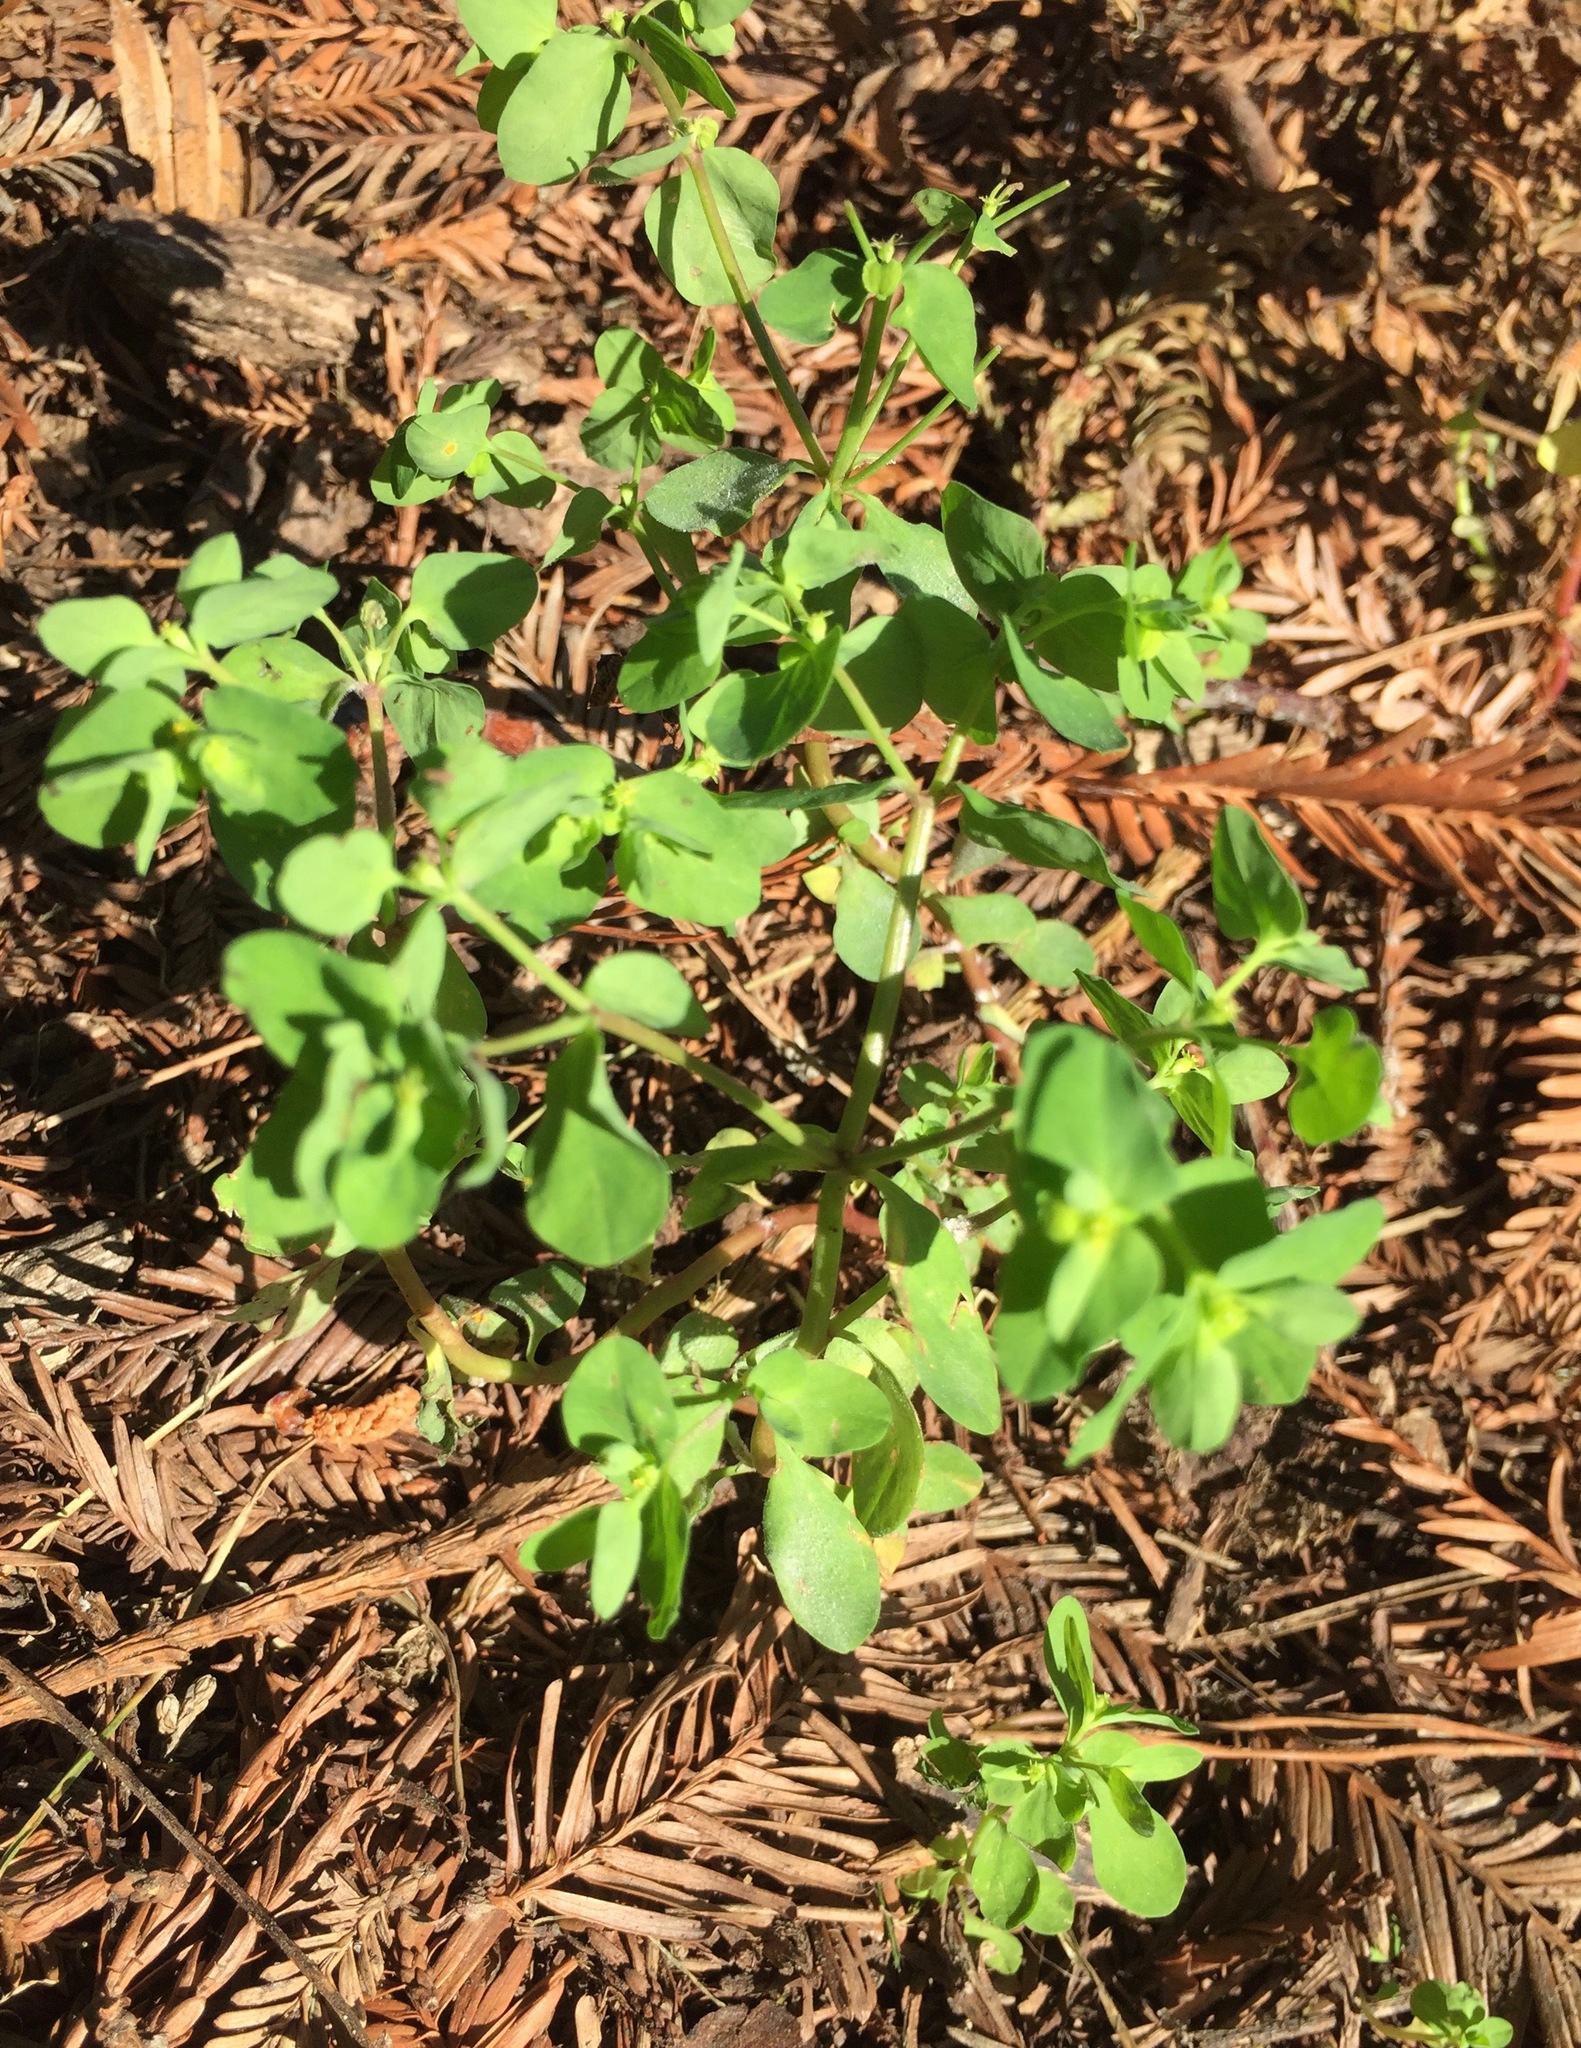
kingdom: Plantae
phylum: Tracheophyta
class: Magnoliopsida
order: Malpighiales
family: Euphorbiaceae
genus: Euphorbia
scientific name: Euphorbia peplus
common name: Petty spurge
